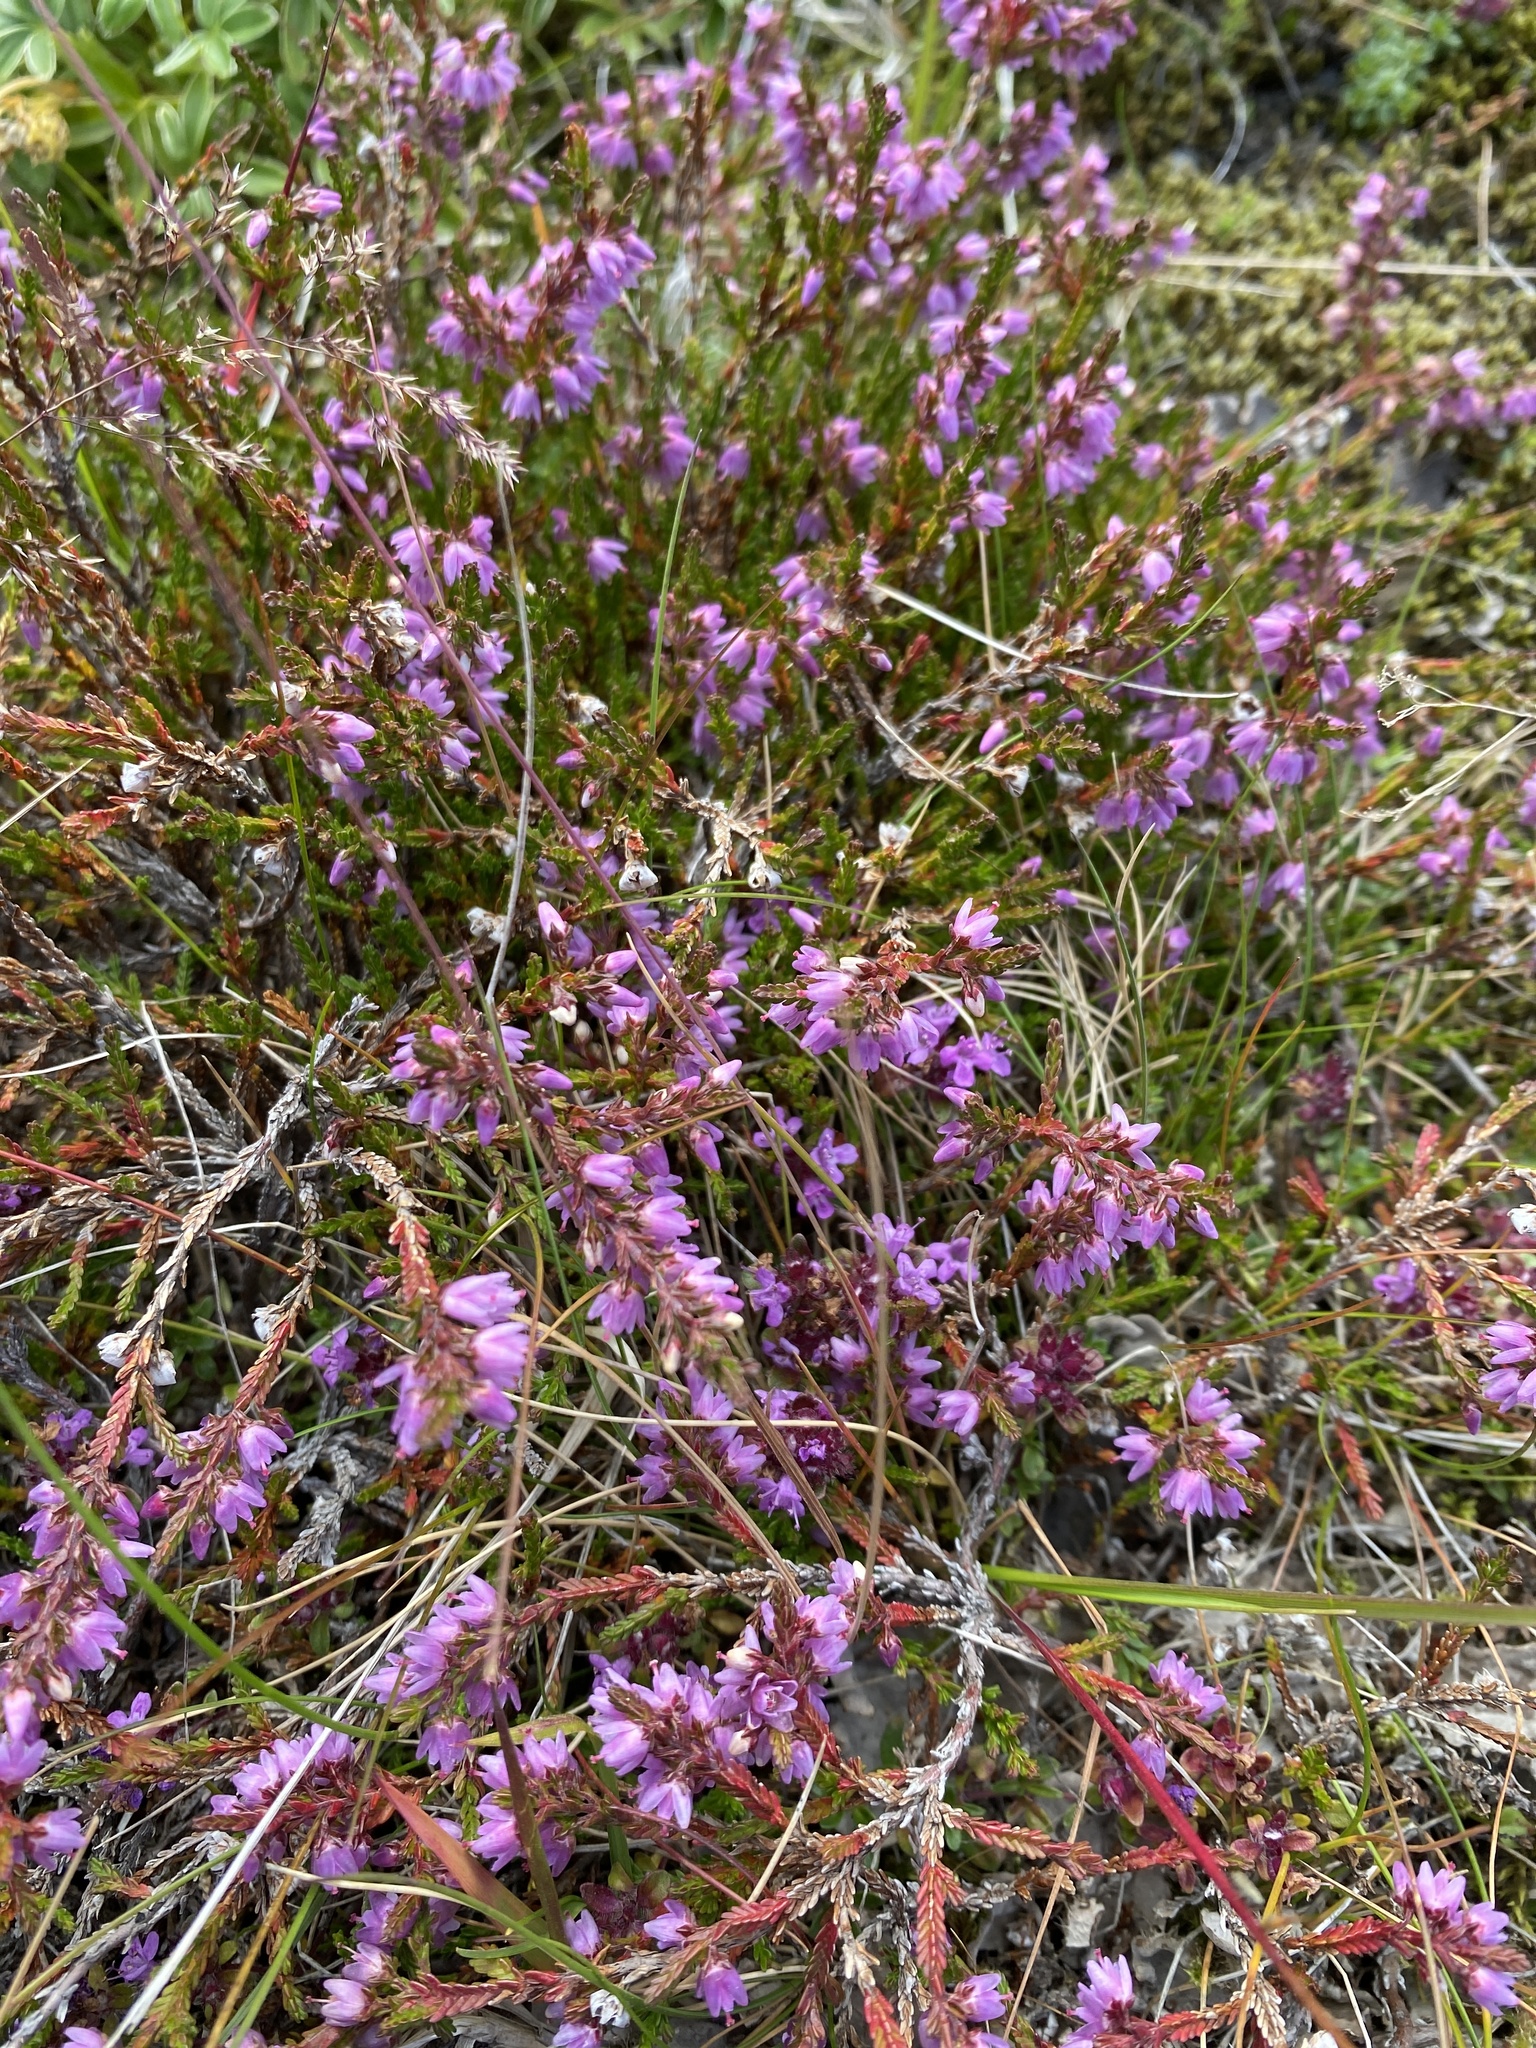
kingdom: Plantae
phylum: Tracheophyta
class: Magnoliopsida
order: Ericales
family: Ericaceae
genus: Calluna
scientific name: Calluna vulgaris
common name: Heather
